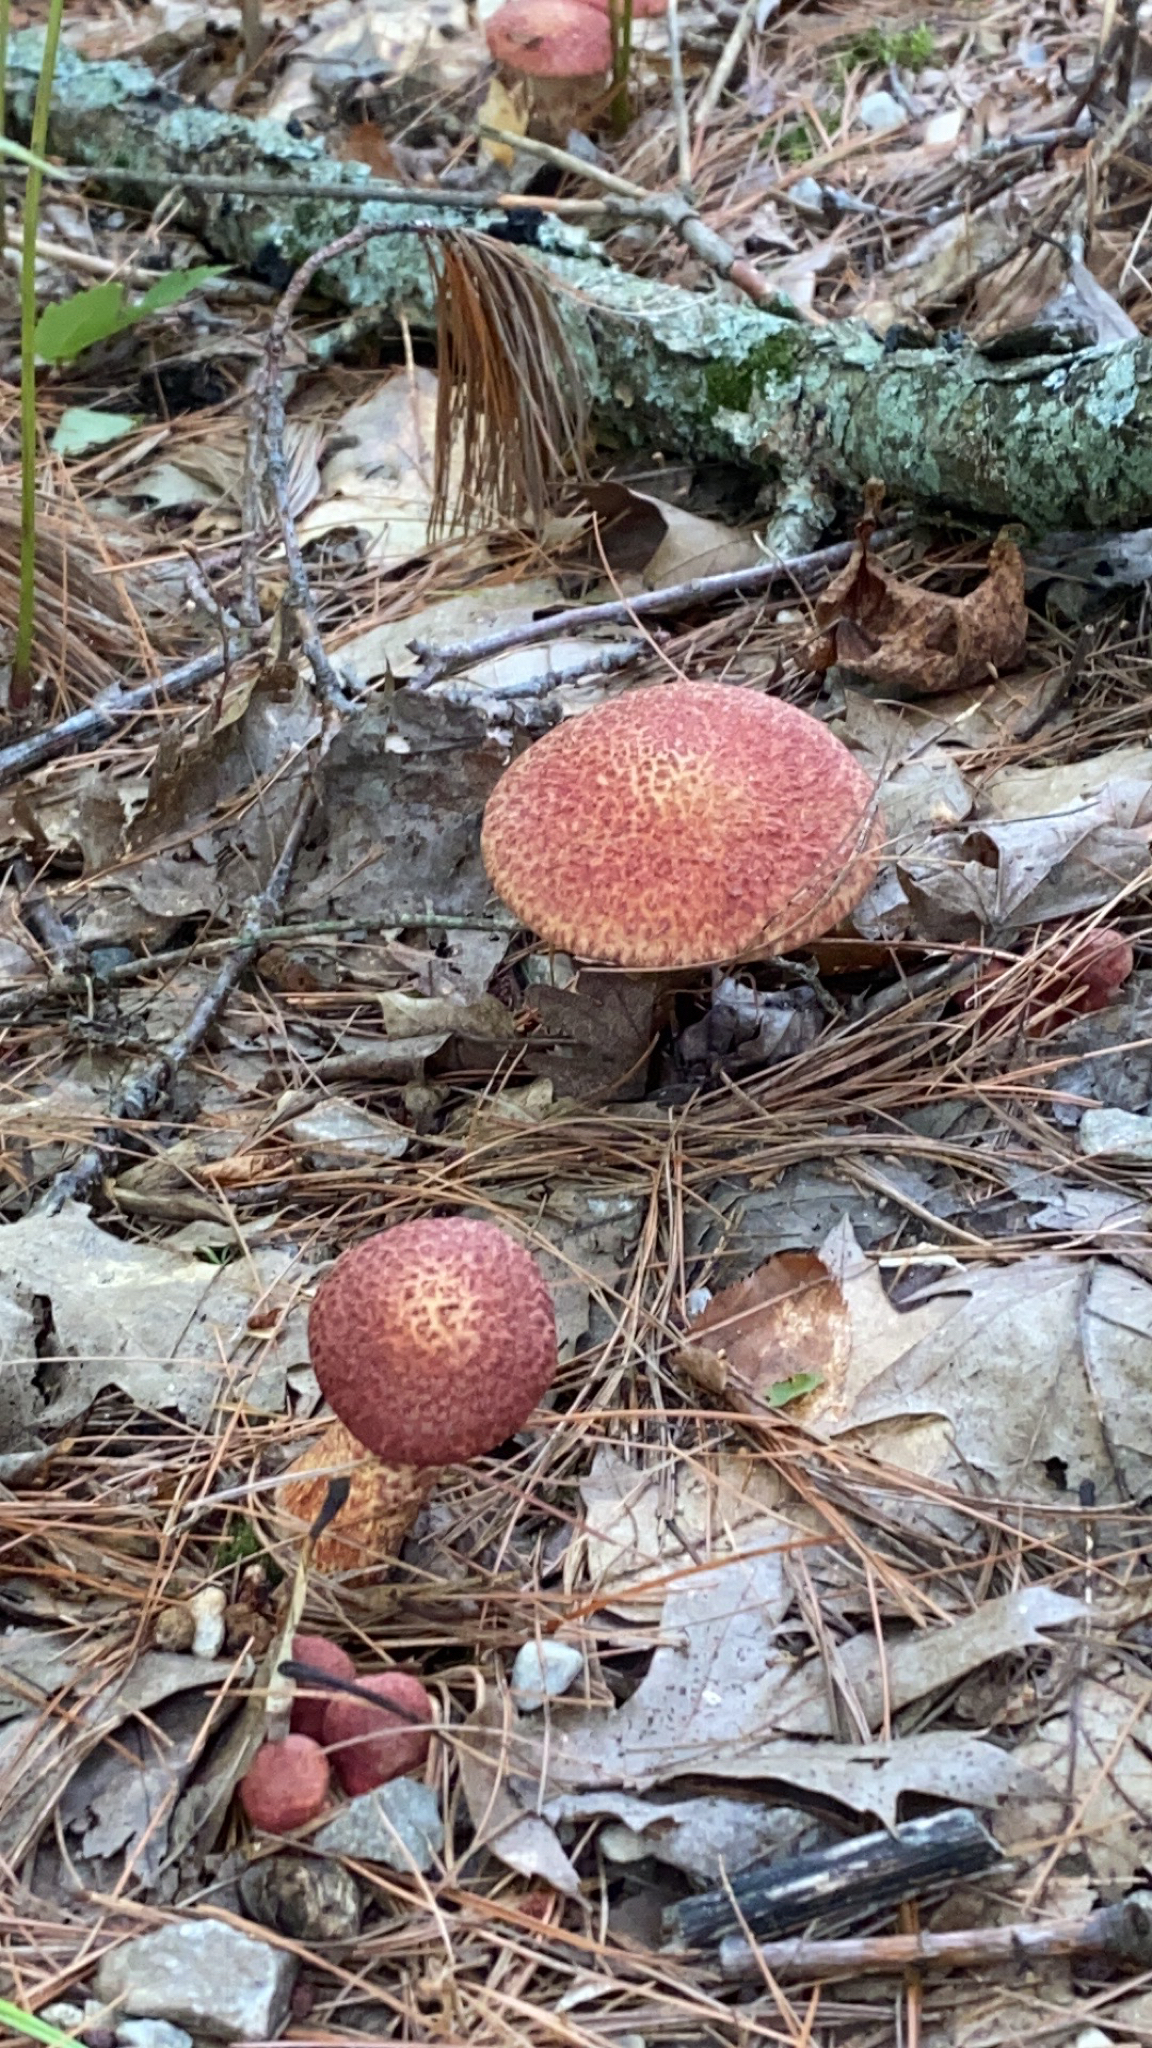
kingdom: Fungi
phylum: Basidiomycota
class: Agaricomycetes
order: Boletales
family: Suillaceae
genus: Suillus
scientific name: Suillus spraguei
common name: Painted suillus
